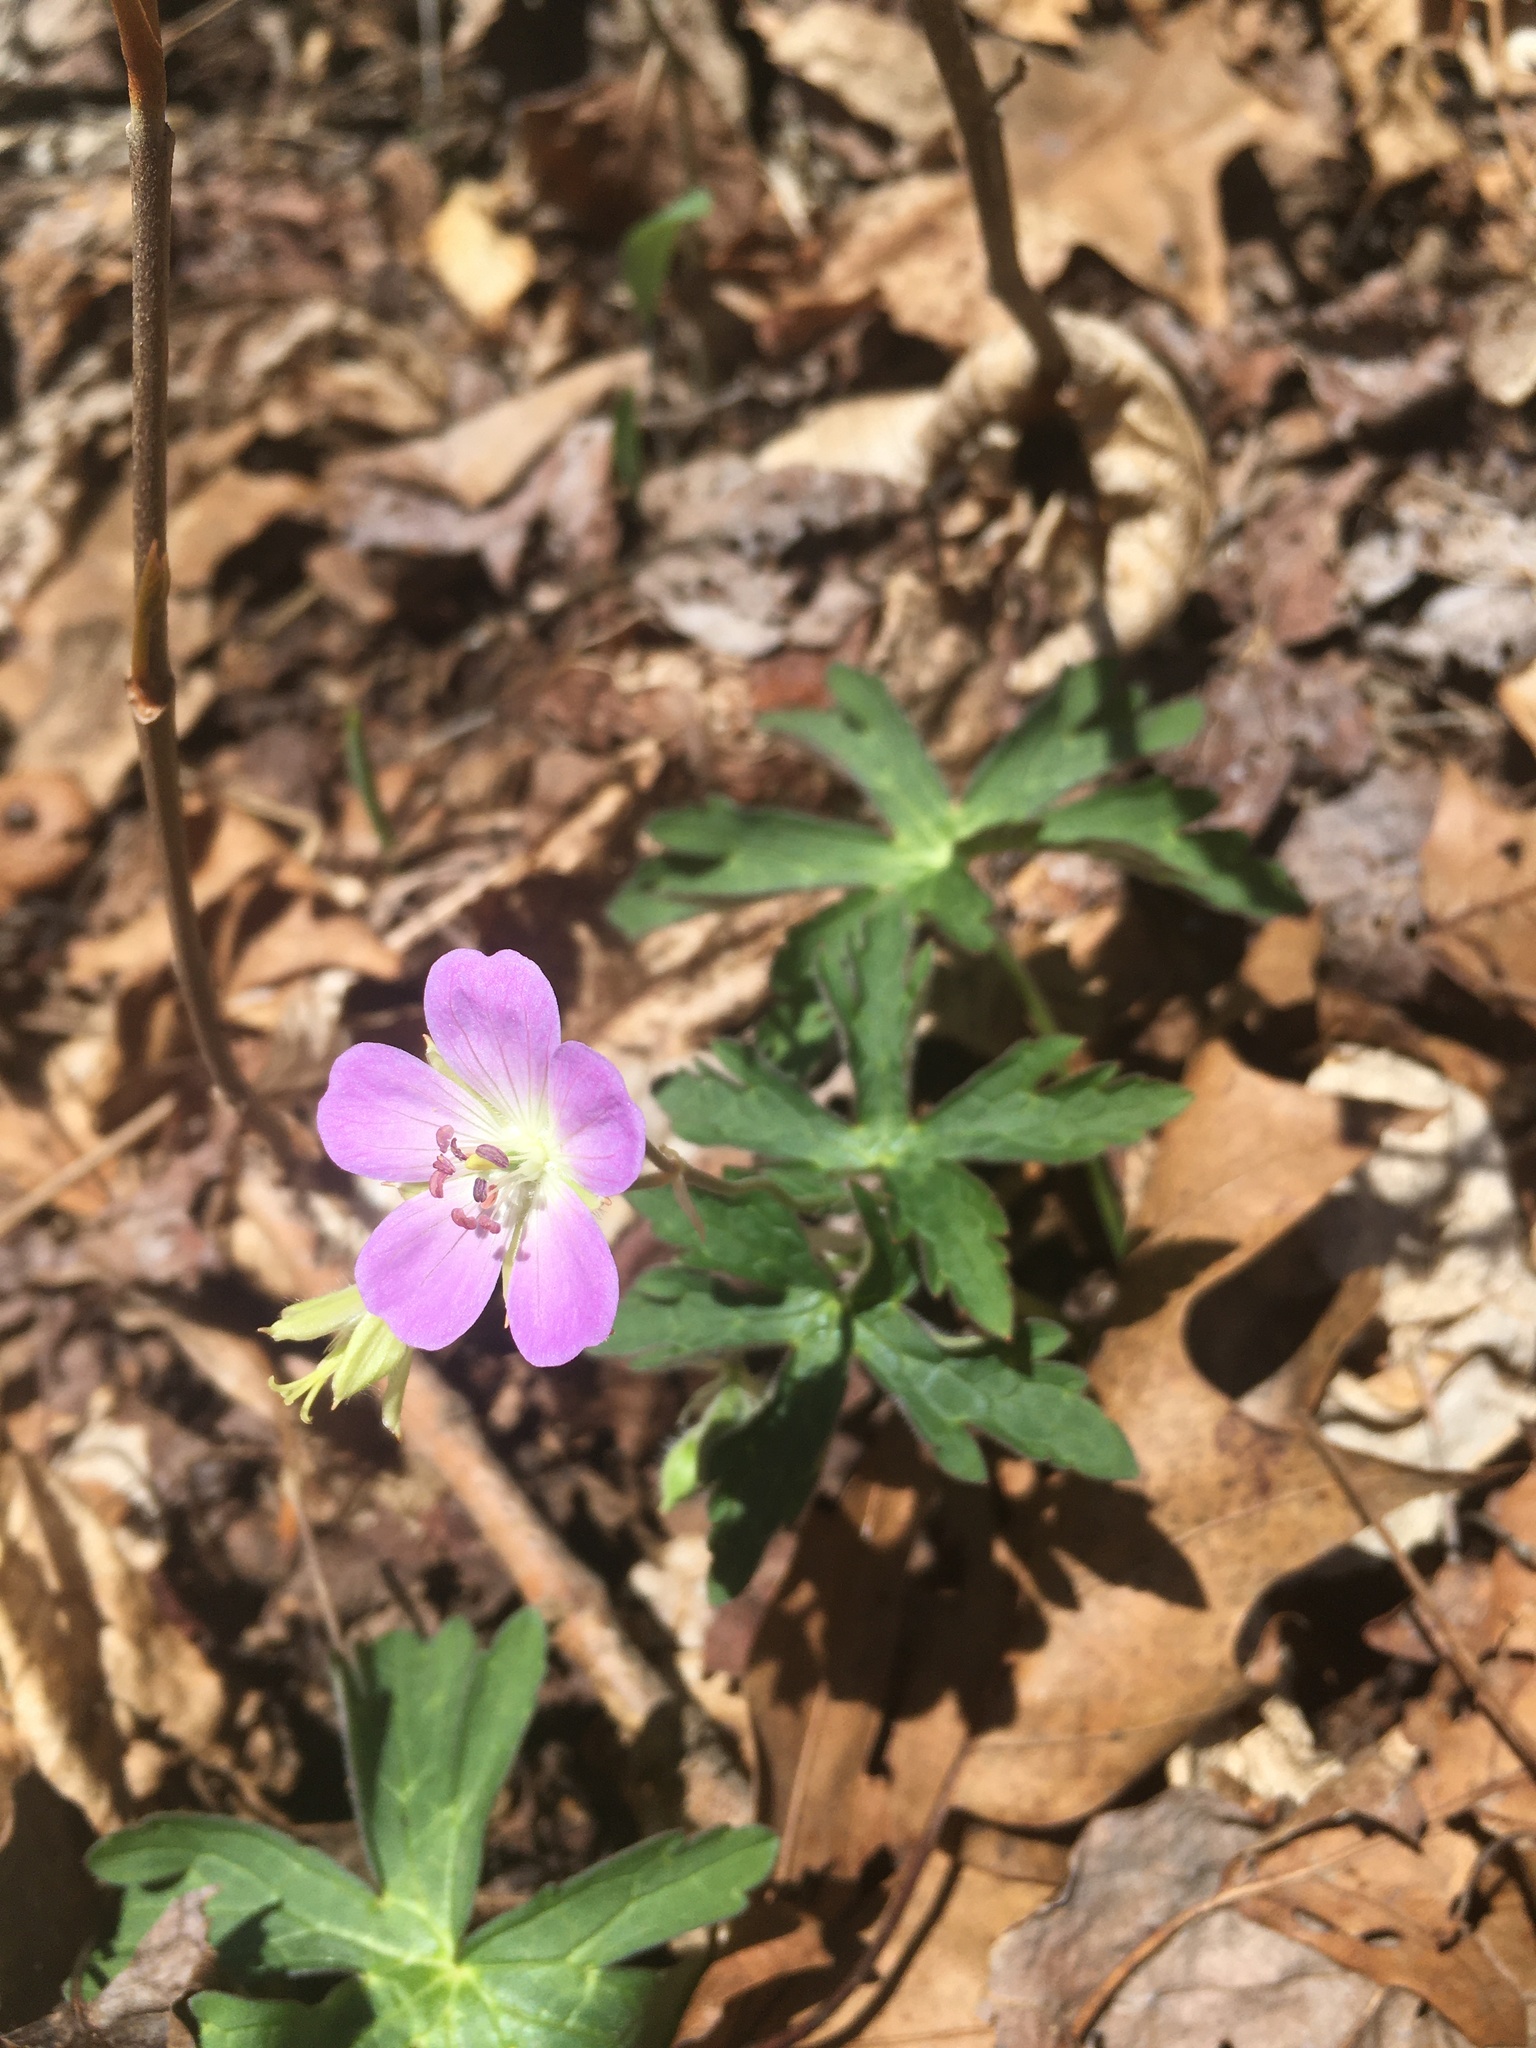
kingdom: Plantae
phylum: Tracheophyta
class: Magnoliopsida
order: Geraniales
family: Geraniaceae
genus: Geranium
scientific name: Geranium maculatum
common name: Spotted geranium
